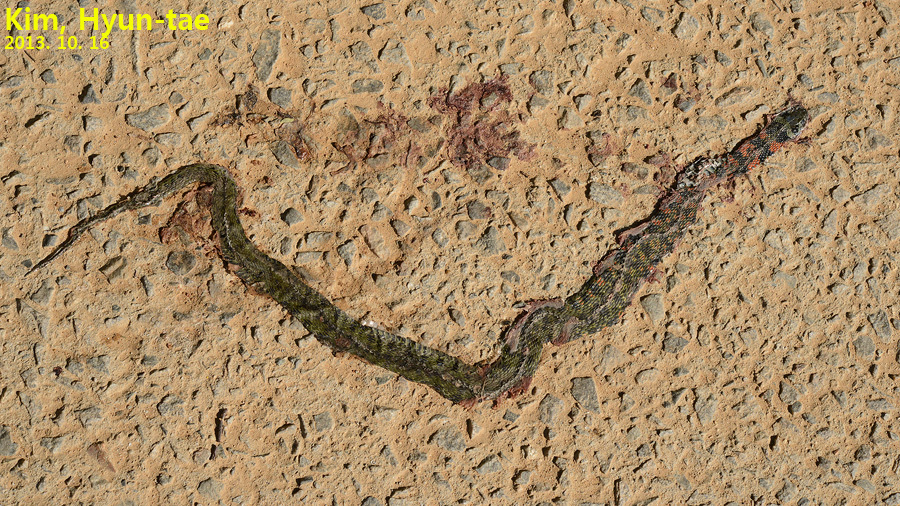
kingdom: Animalia
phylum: Chordata
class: Squamata
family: Colubridae
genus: Rhabdophis
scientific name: Rhabdophis tigrinus
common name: Tiger keelback
